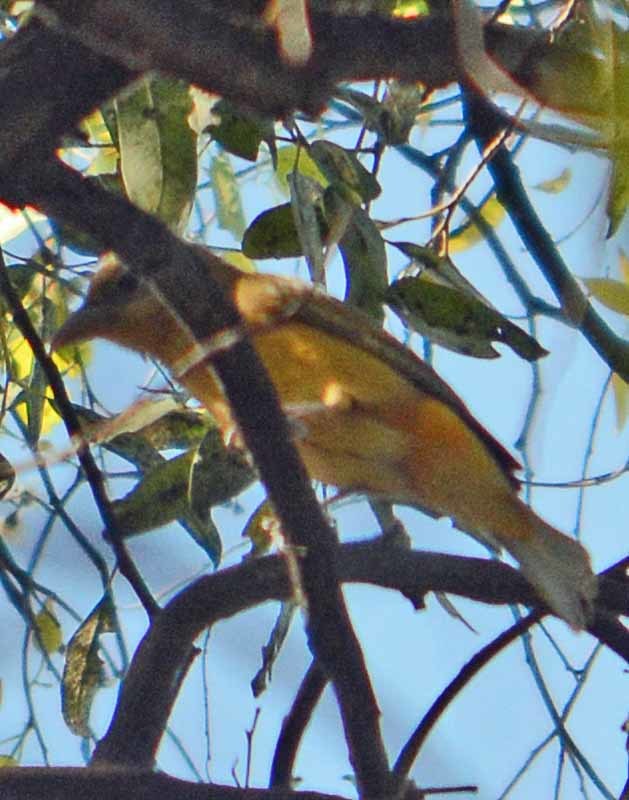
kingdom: Animalia
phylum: Chordata
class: Aves
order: Passeriformes
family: Cardinalidae
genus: Piranga
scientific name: Piranga rubra
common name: Summer tanager
